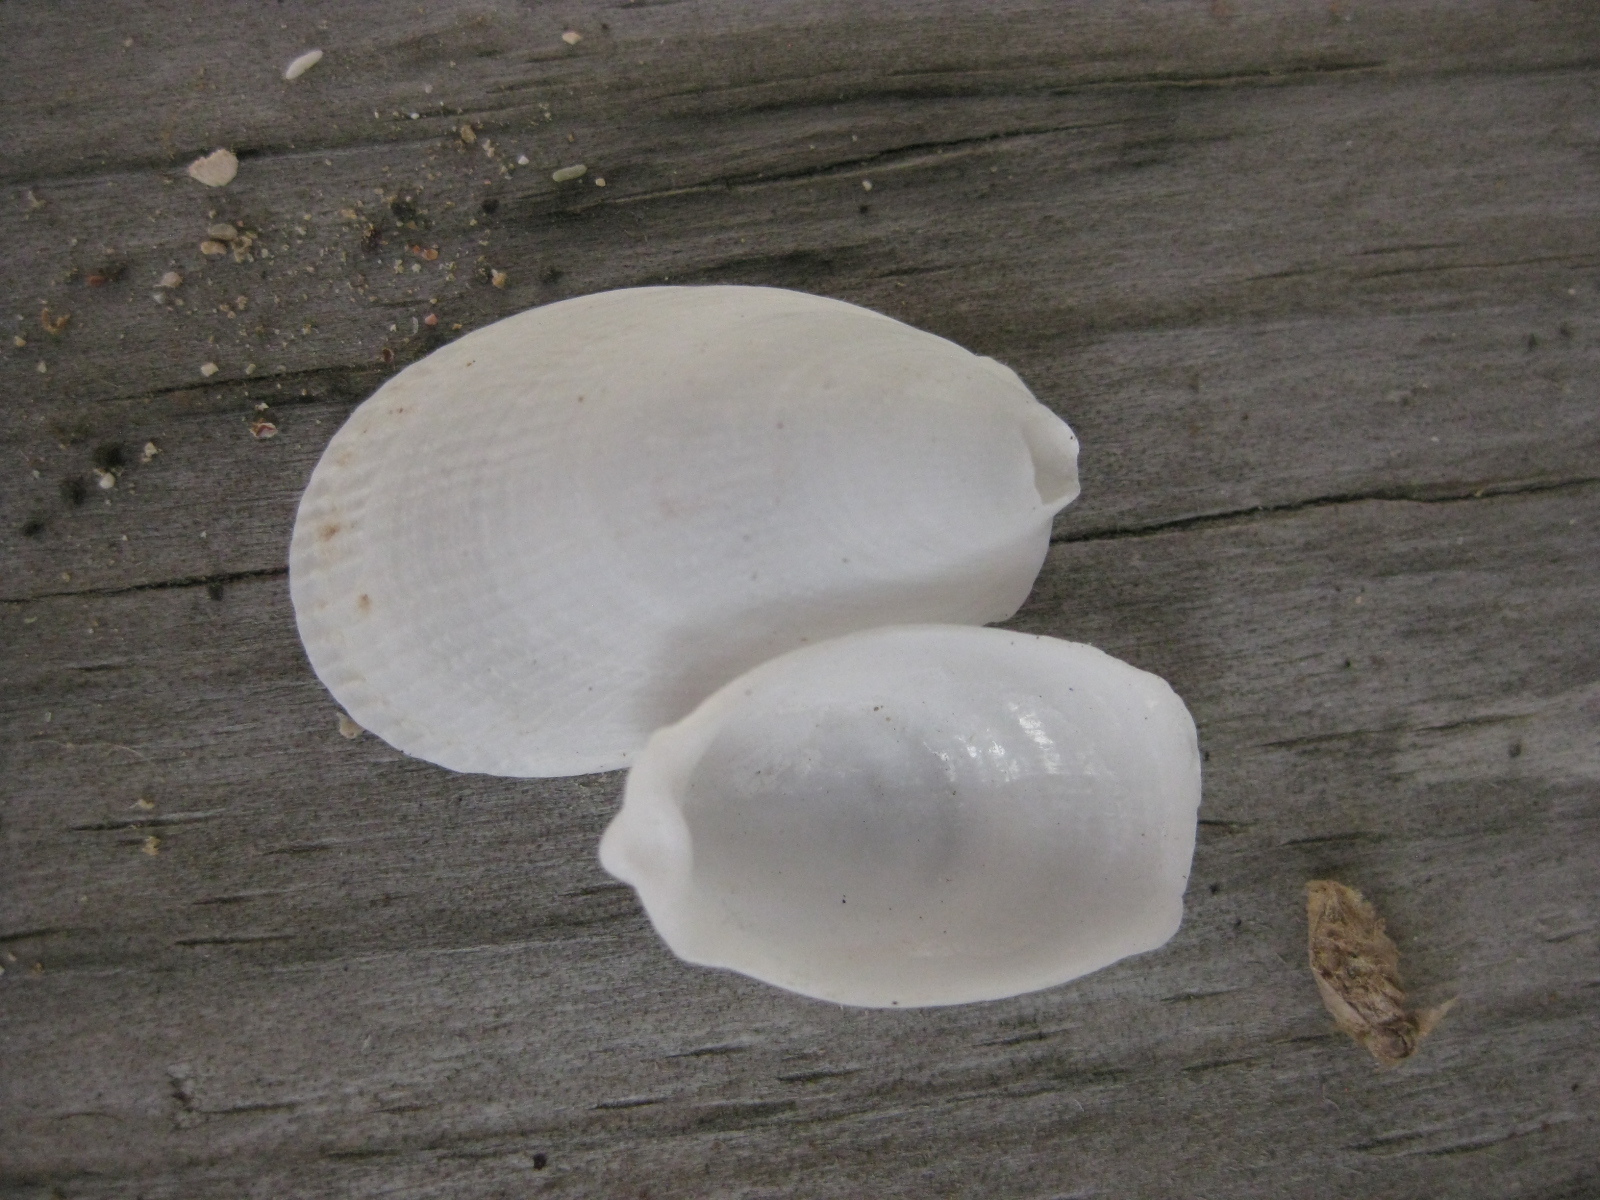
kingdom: Animalia
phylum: Mollusca
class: Bivalvia
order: Limida
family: Limidae
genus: Limatula
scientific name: Limatula maoria
